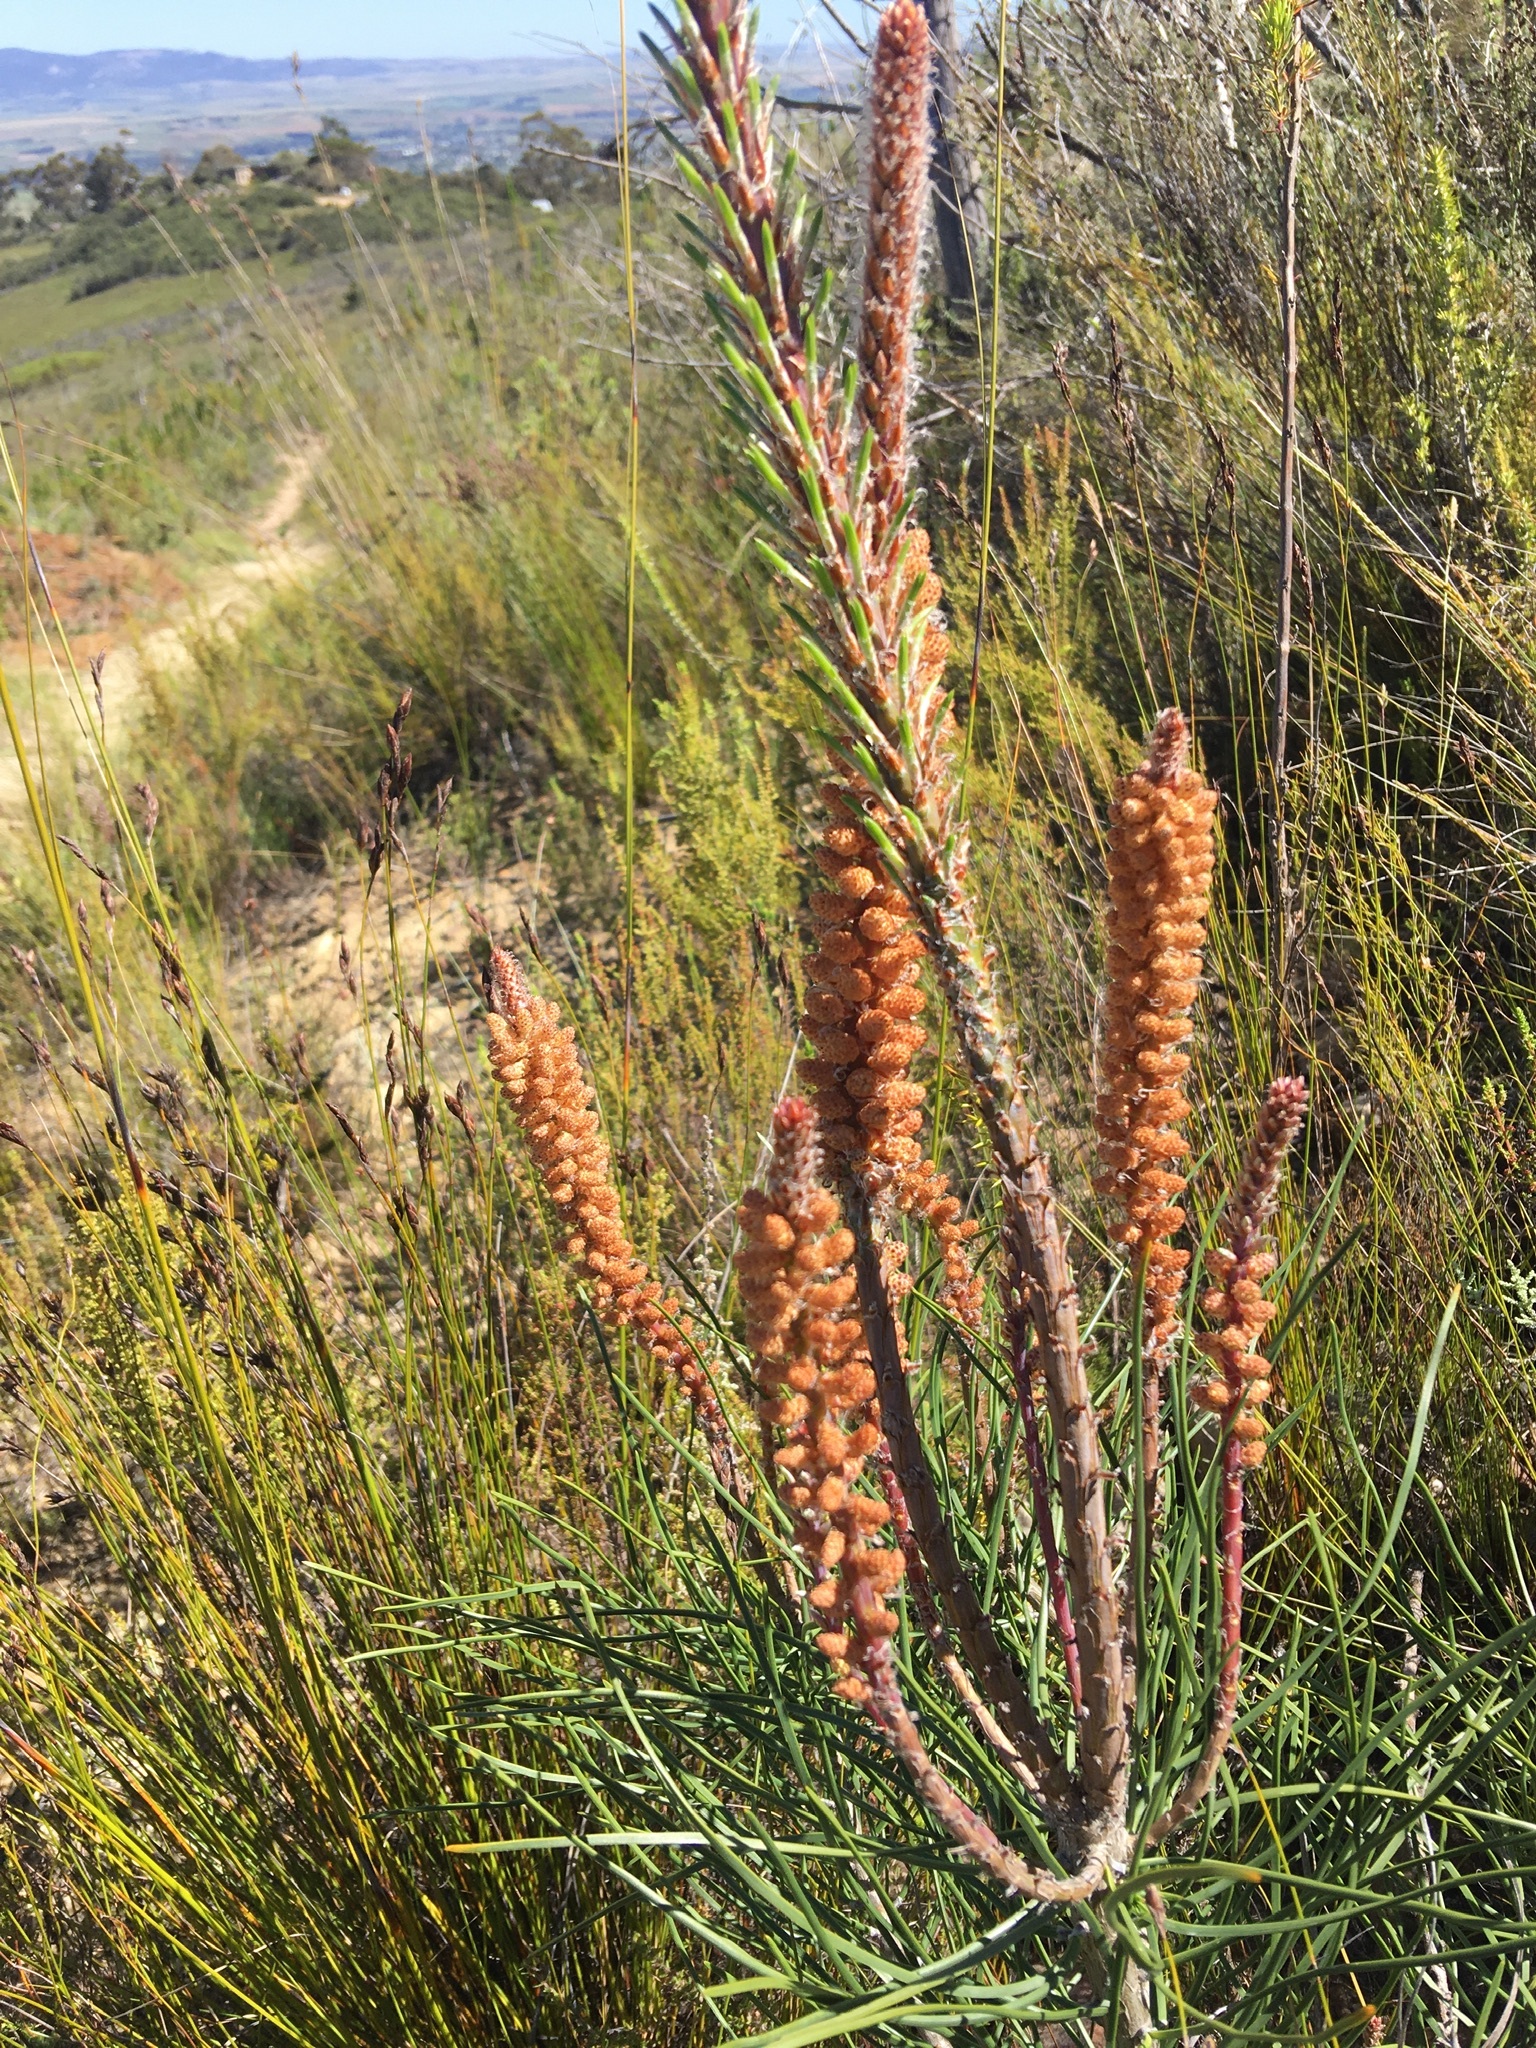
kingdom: Plantae
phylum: Tracheophyta
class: Pinopsida
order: Pinales
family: Pinaceae
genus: Pinus
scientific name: Pinus pinaster
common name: Maritime pine
